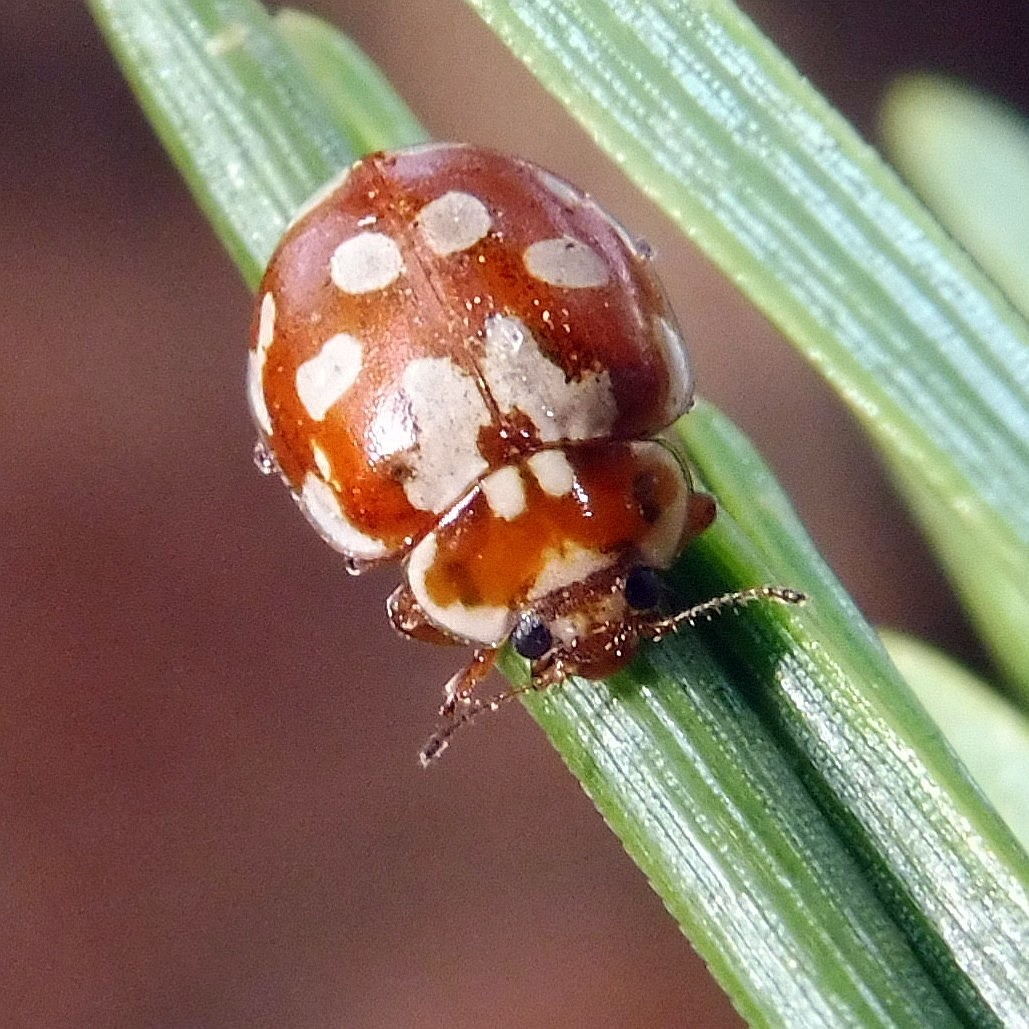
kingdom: Animalia
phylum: Arthropoda
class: Insecta
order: Coleoptera
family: Coccinellidae
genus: Myrrha
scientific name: Myrrha octodecimguttata
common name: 18-spot ladybird
